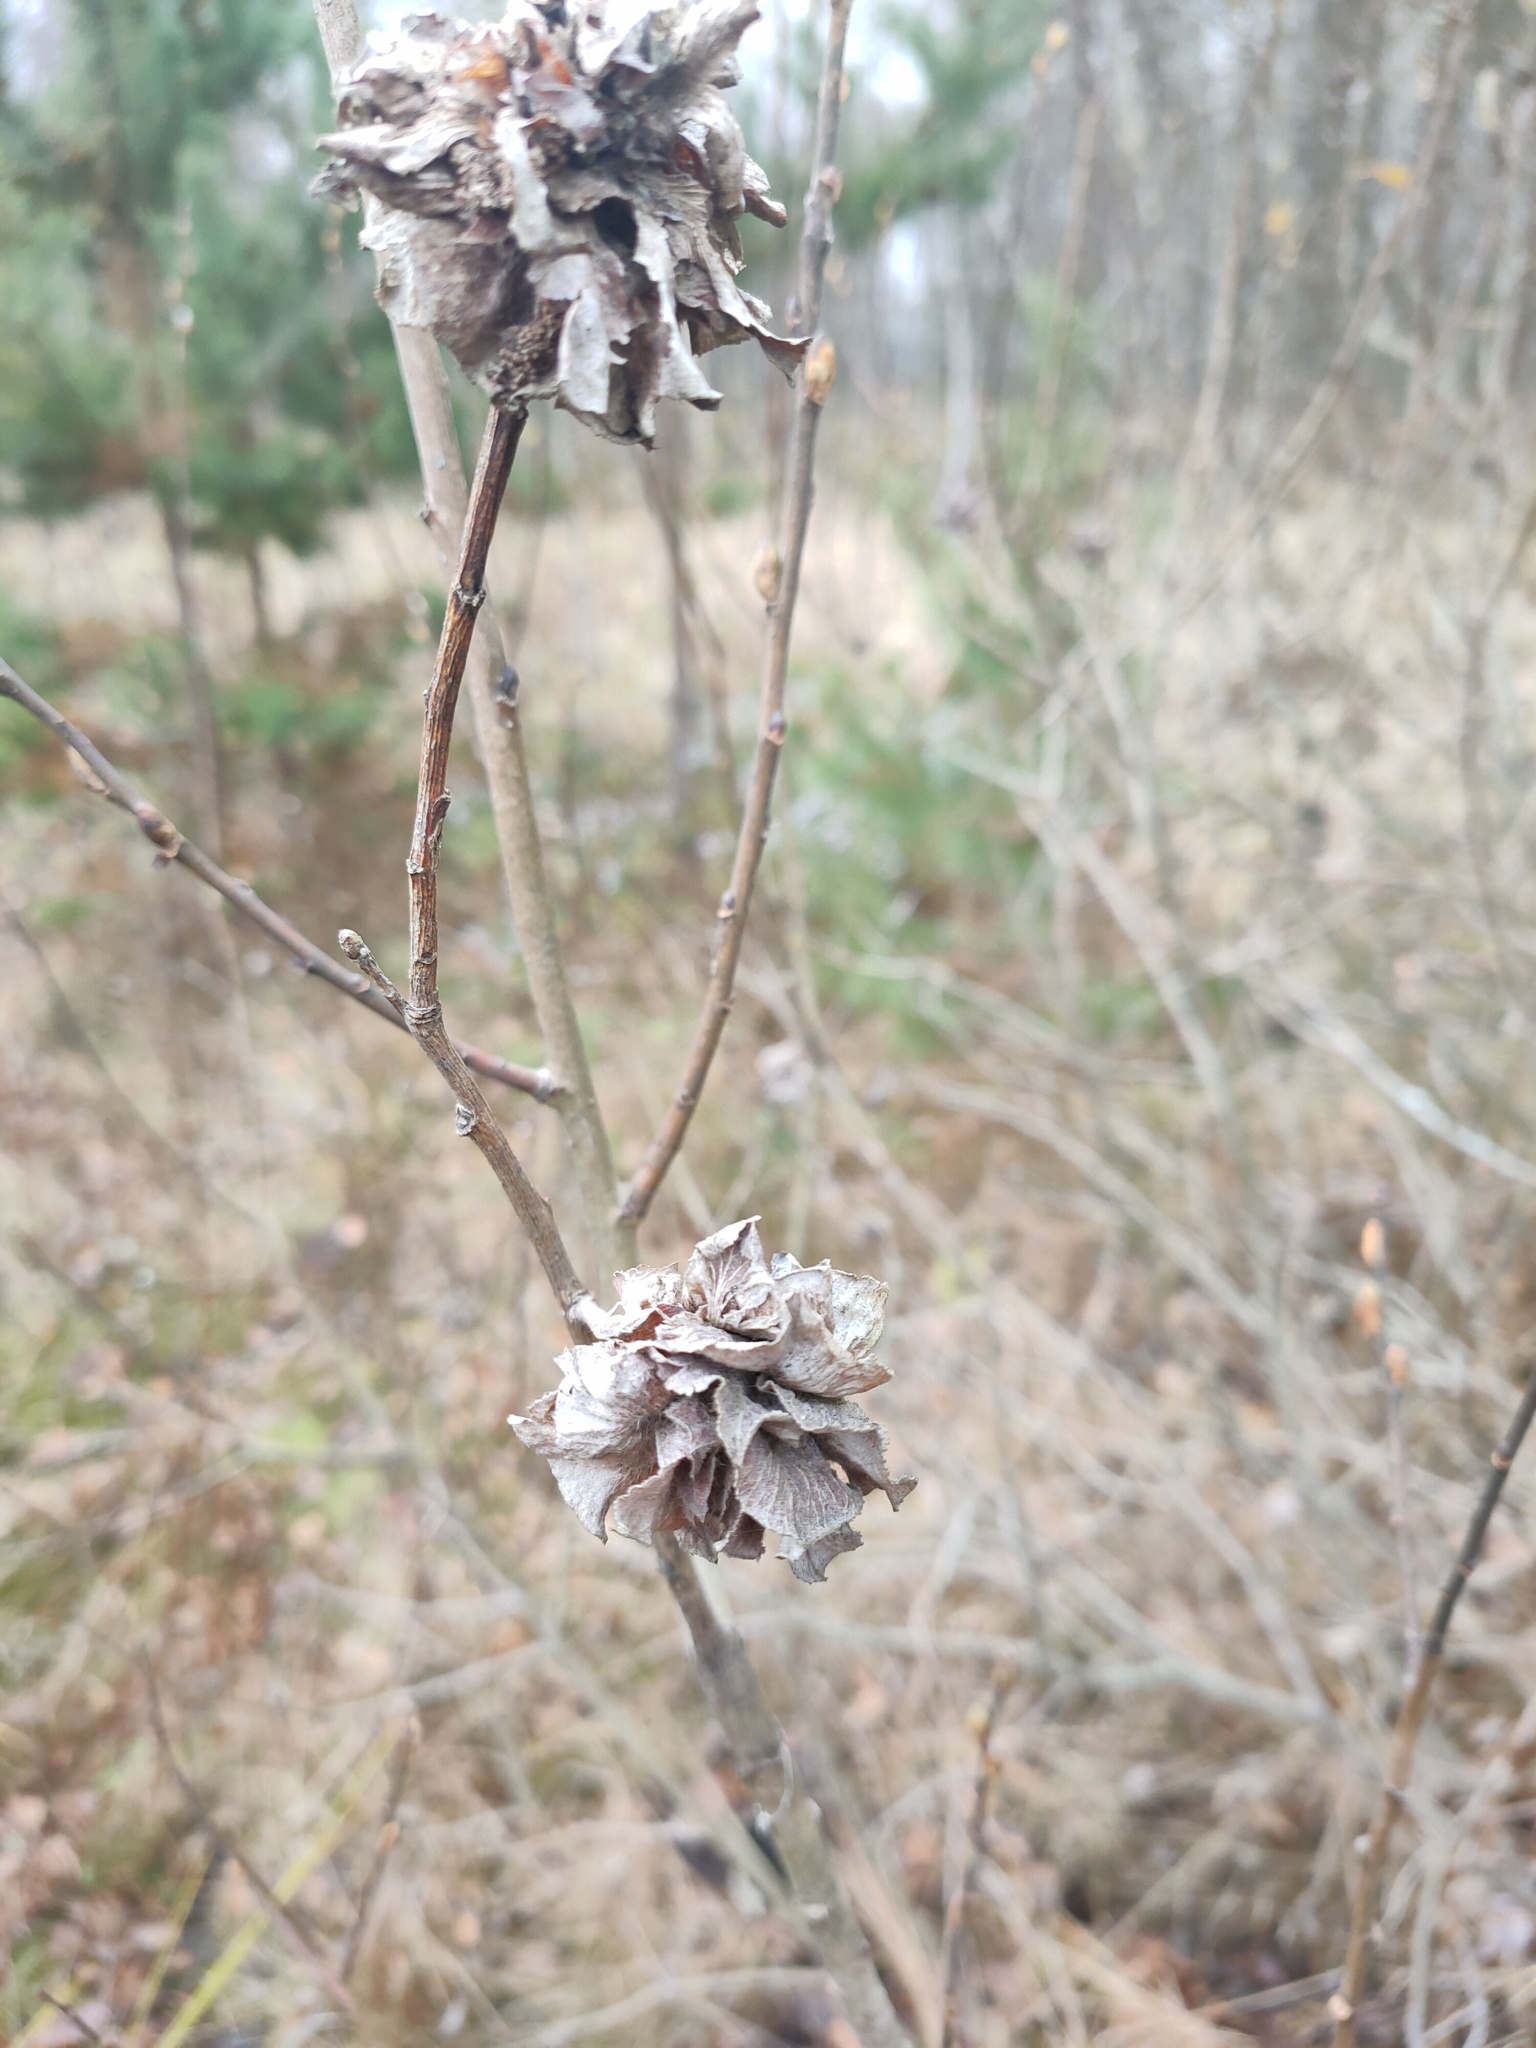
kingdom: Animalia
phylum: Arthropoda
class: Insecta
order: Diptera
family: Cecidomyiidae
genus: Rabdophaga
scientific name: Rabdophaga rosaria
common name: Willow rose gall midge
